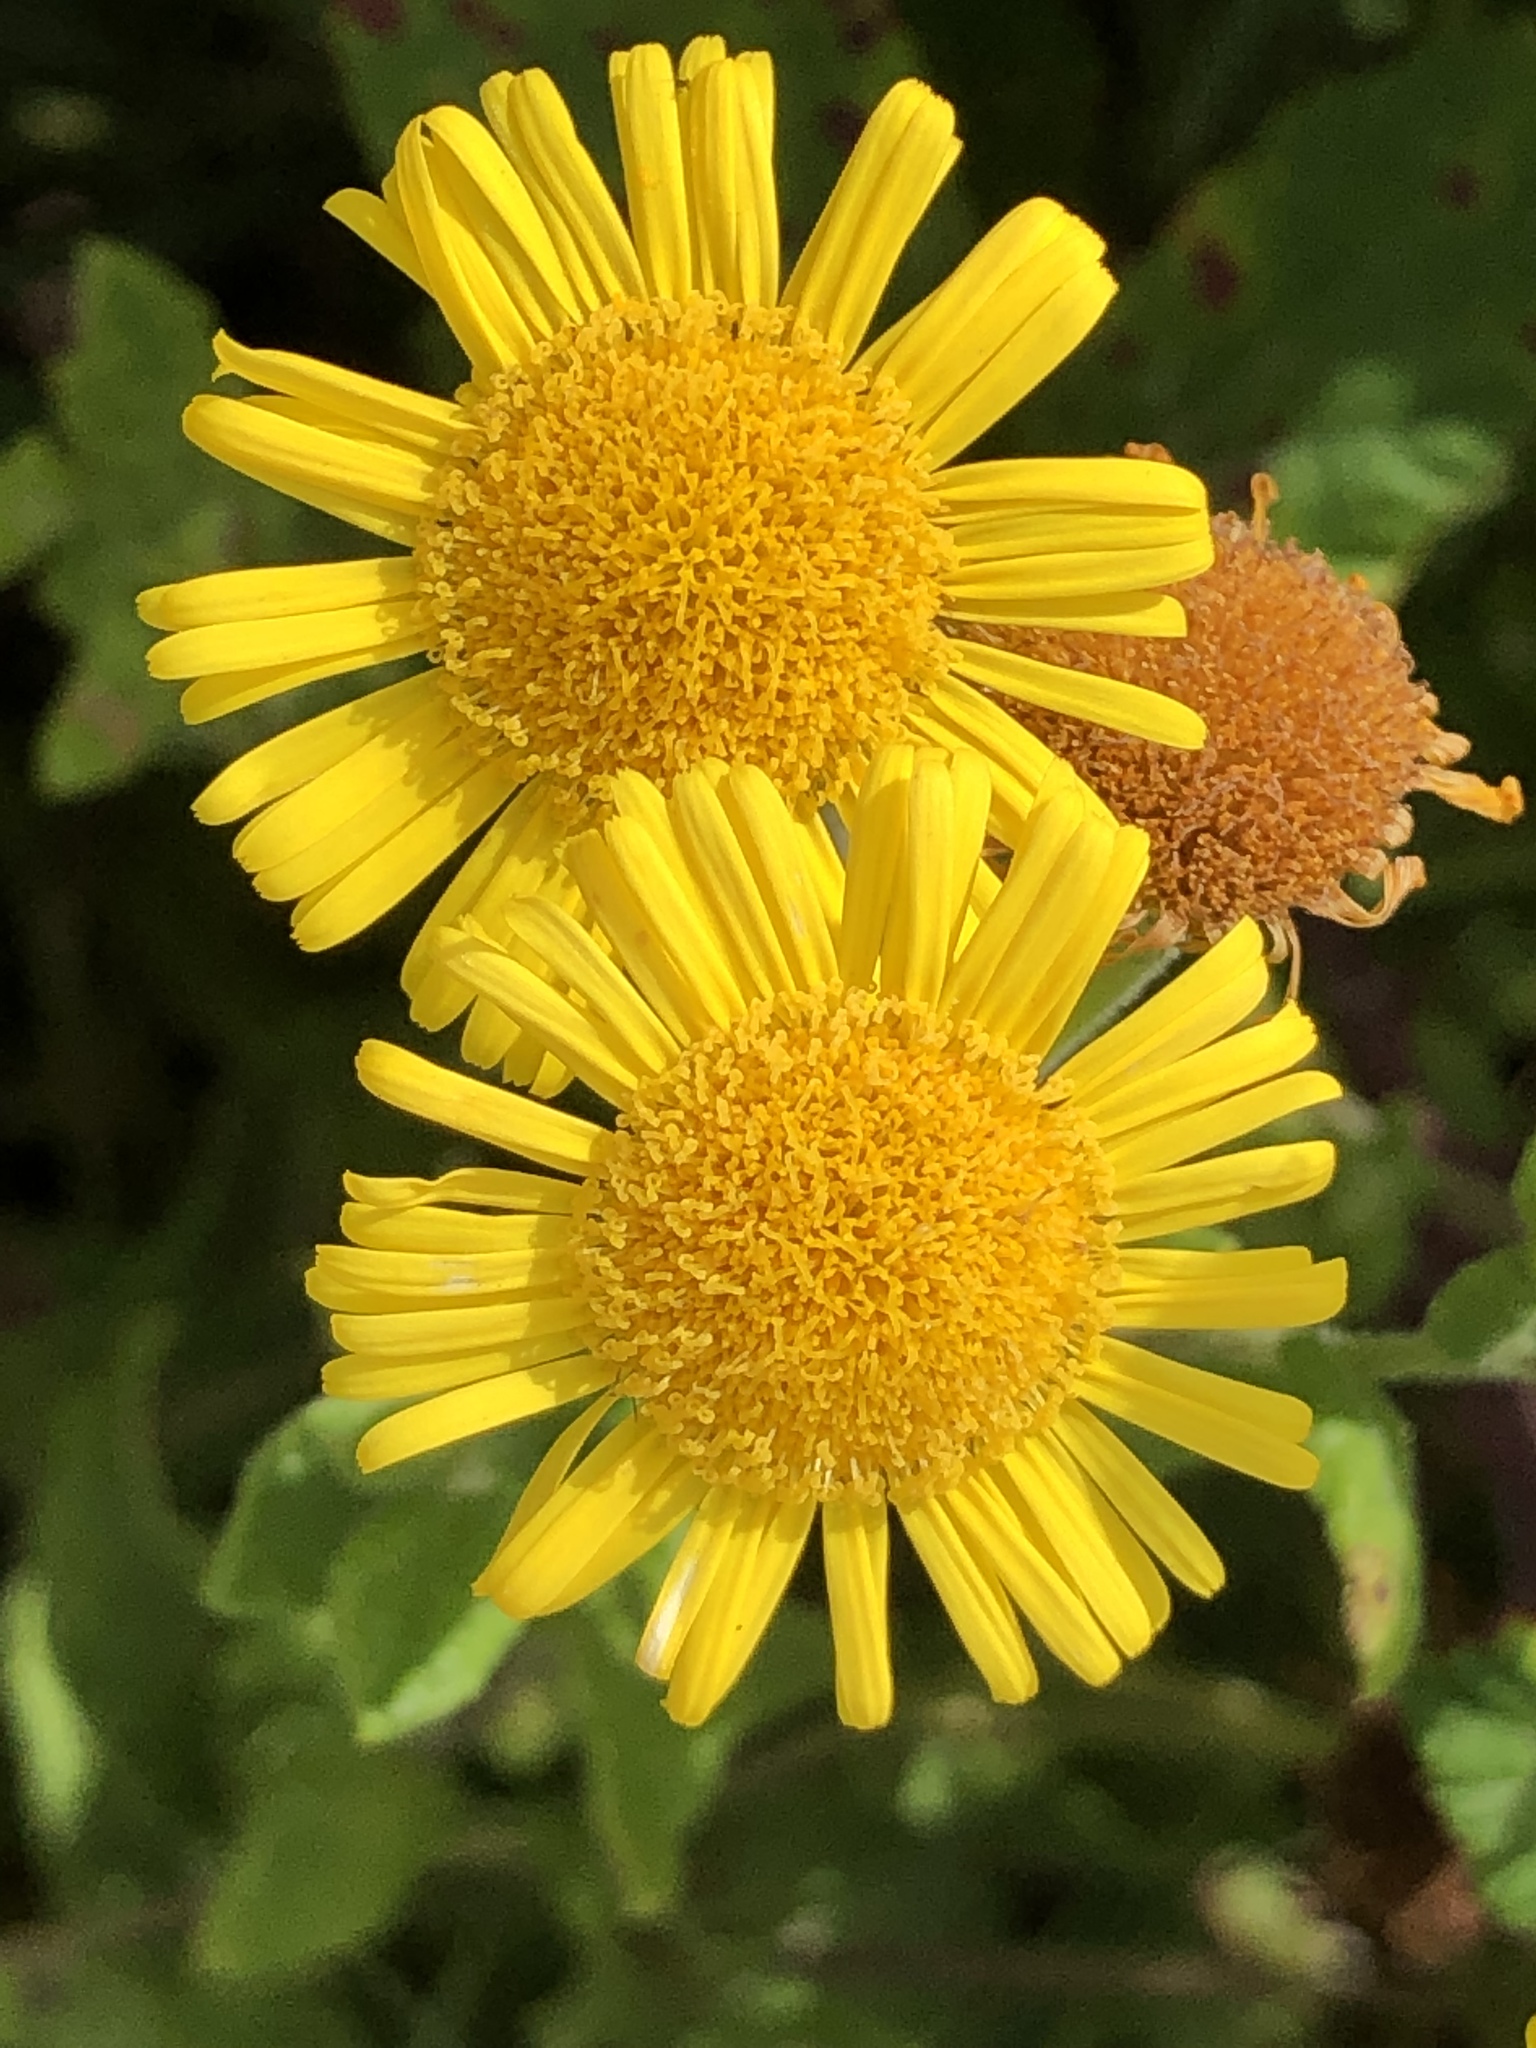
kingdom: Plantae
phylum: Tracheophyta
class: Magnoliopsida
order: Asterales
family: Asteraceae
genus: Pulicaria
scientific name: Pulicaria dysenterica
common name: Common fleabane
